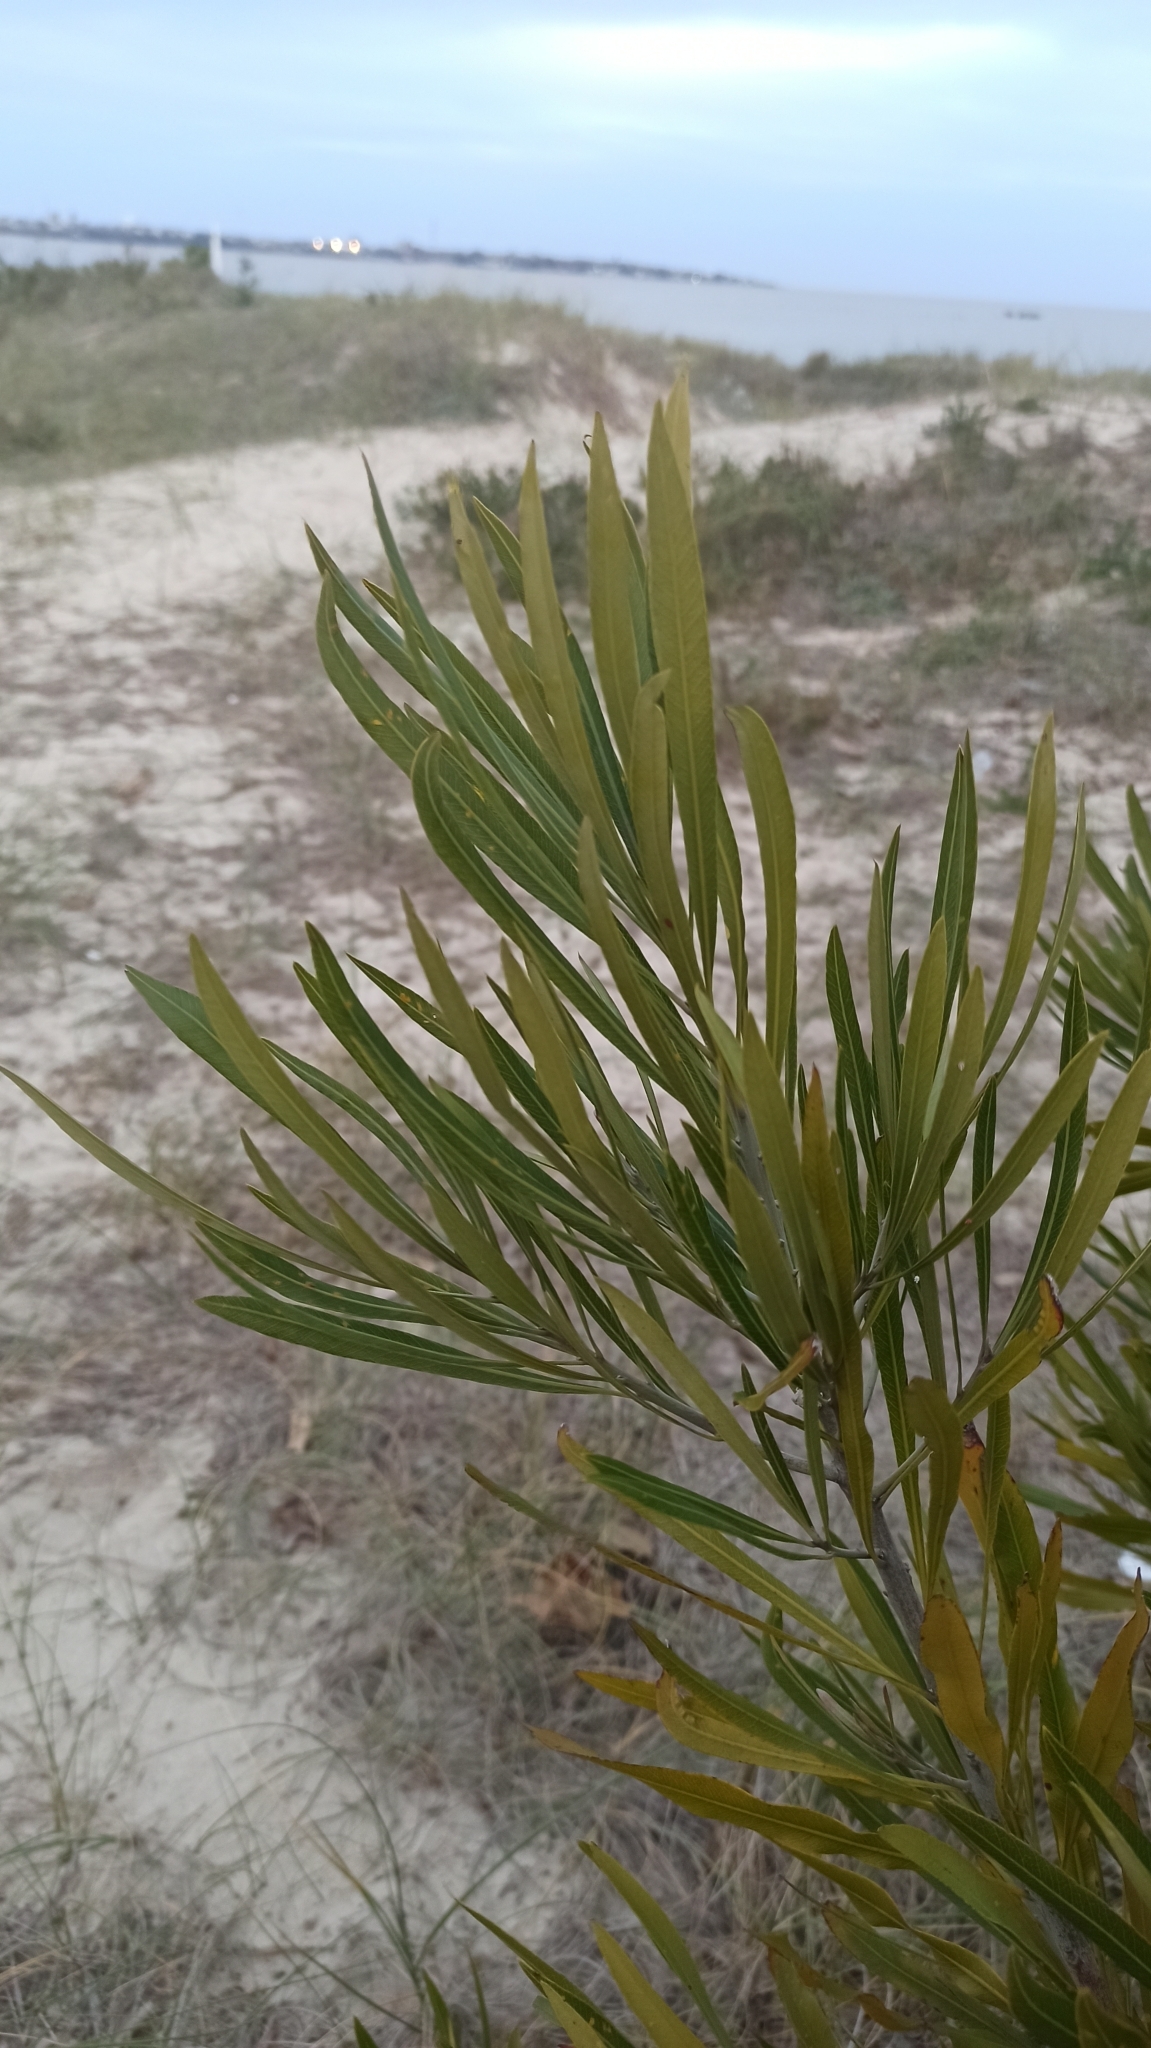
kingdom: Plantae
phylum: Tracheophyta
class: Magnoliopsida
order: Ericales
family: Sapotaceae
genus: Labatia
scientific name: Labatia salicifolia
